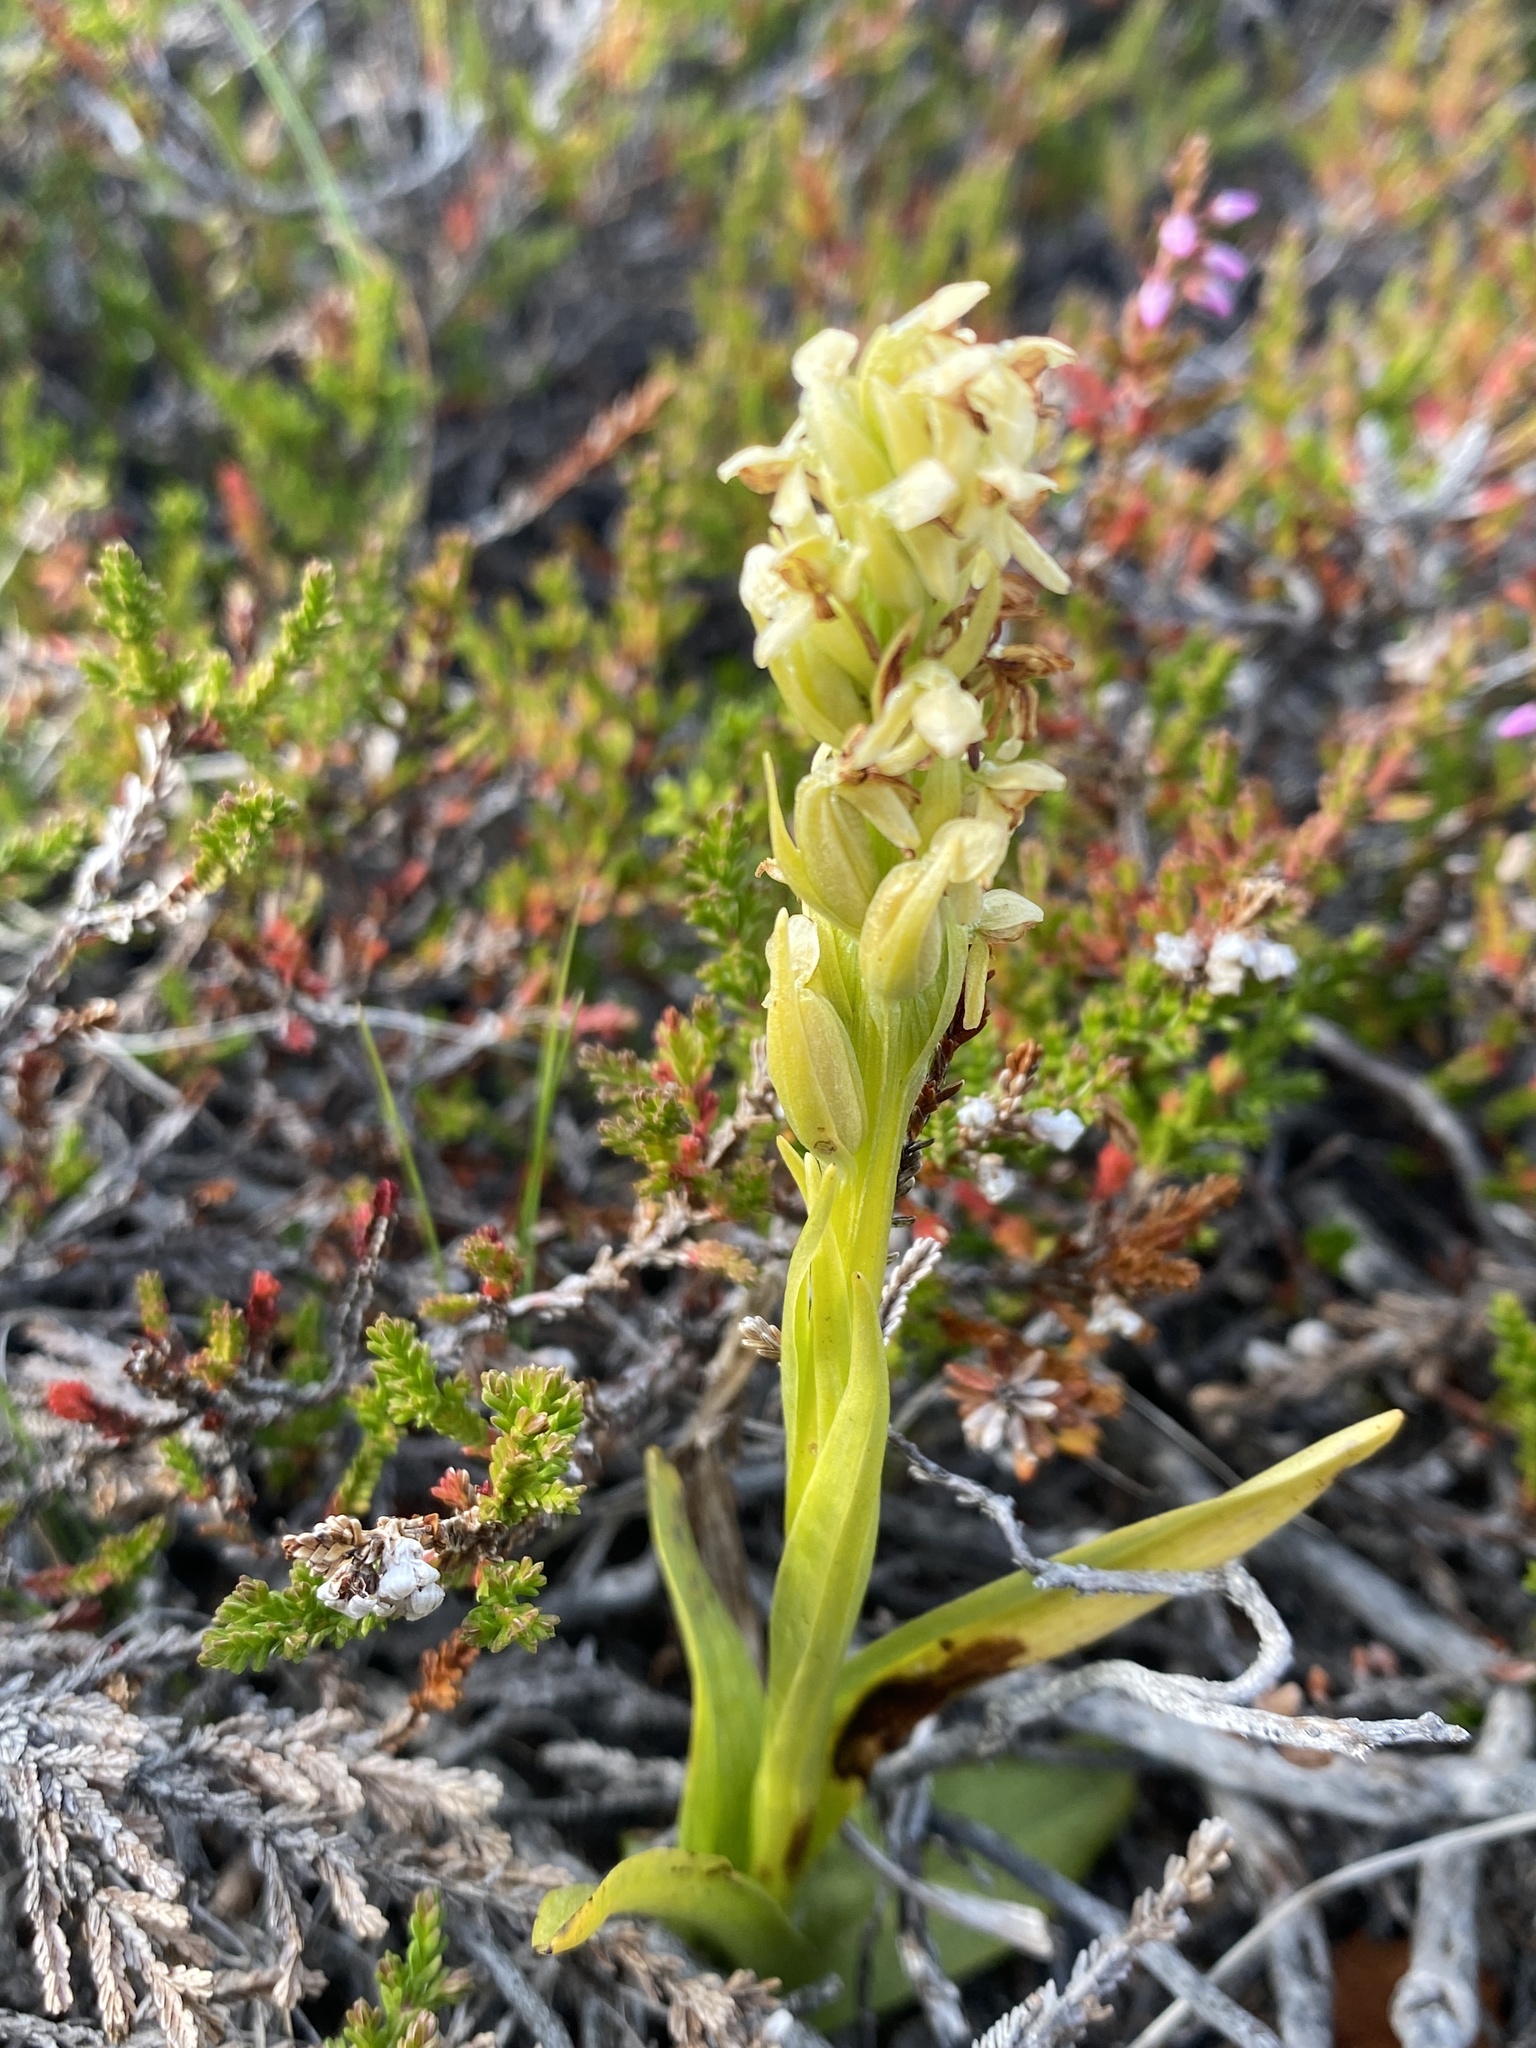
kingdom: Plantae
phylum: Tracheophyta
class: Liliopsida
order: Asparagales
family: Orchidaceae
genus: Platanthera
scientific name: Platanthera hyperborea
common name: Northern green orchid
